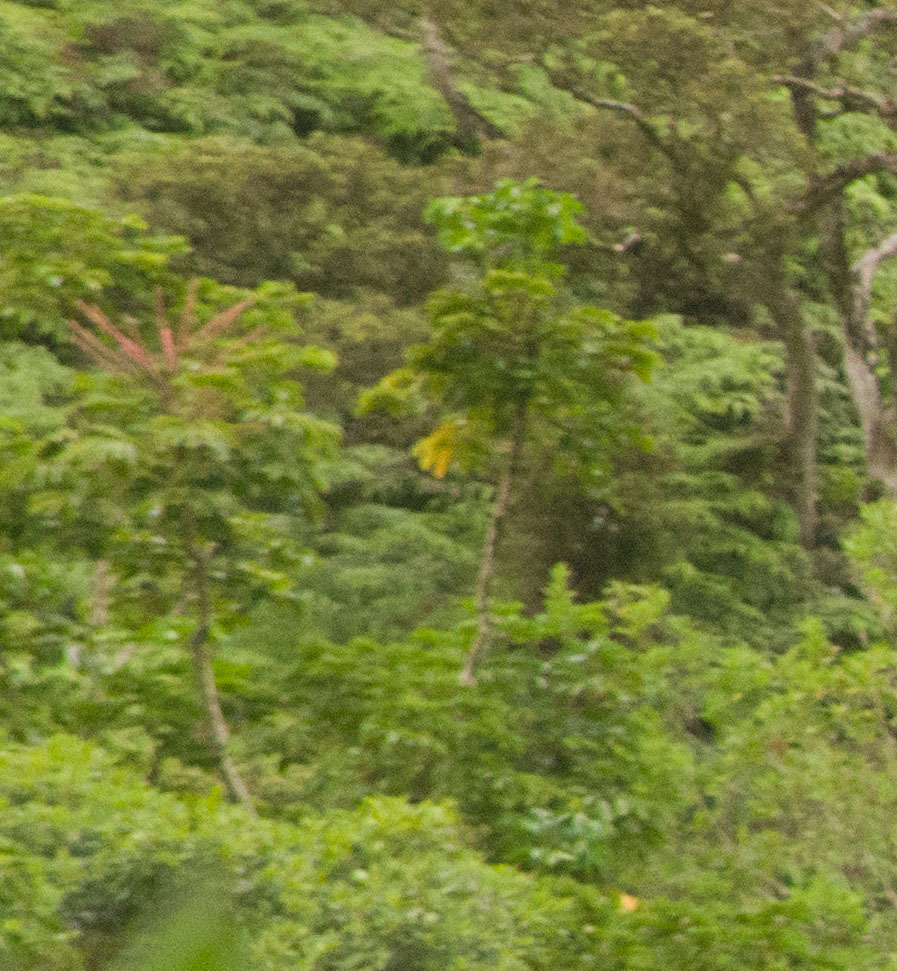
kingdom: Plantae
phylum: Tracheophyta
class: Magnoliopsida
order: Apiales
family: Araliaceae
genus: Heptapleurum
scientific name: Heptapleurum actinophyllum
